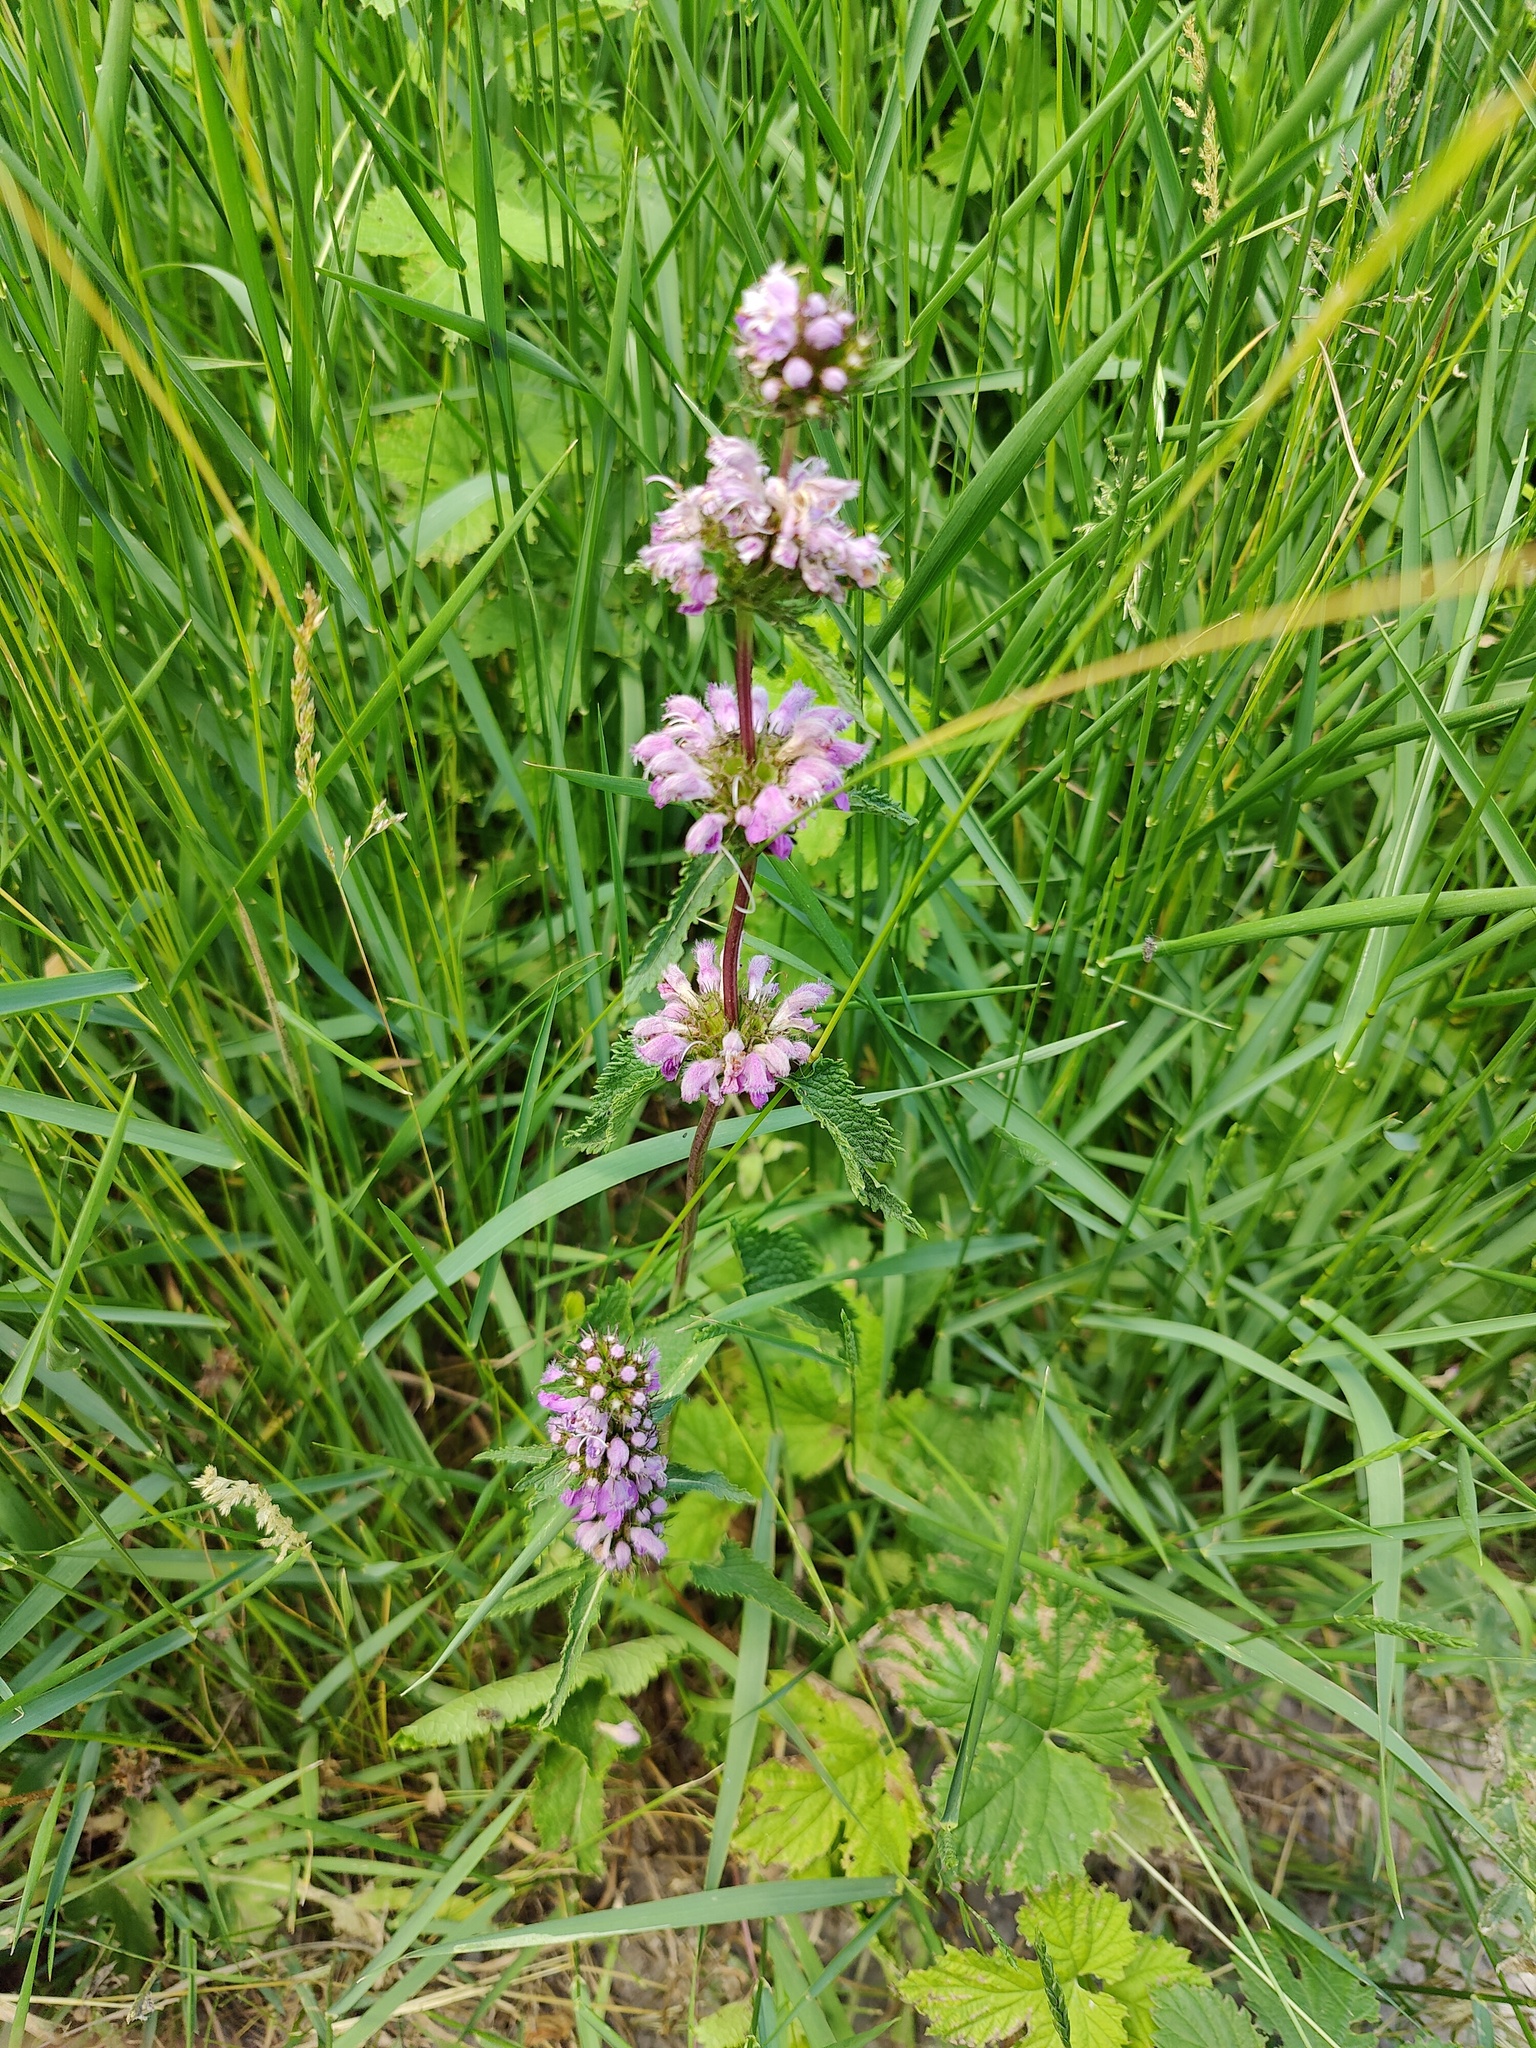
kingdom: Plantae
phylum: Tracheophyta
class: Magnoliopsida
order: Lamiales
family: Lamiaceae
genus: Phlomoides
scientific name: Phlomoides tuberosa
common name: Tuberous jerusalem sage
